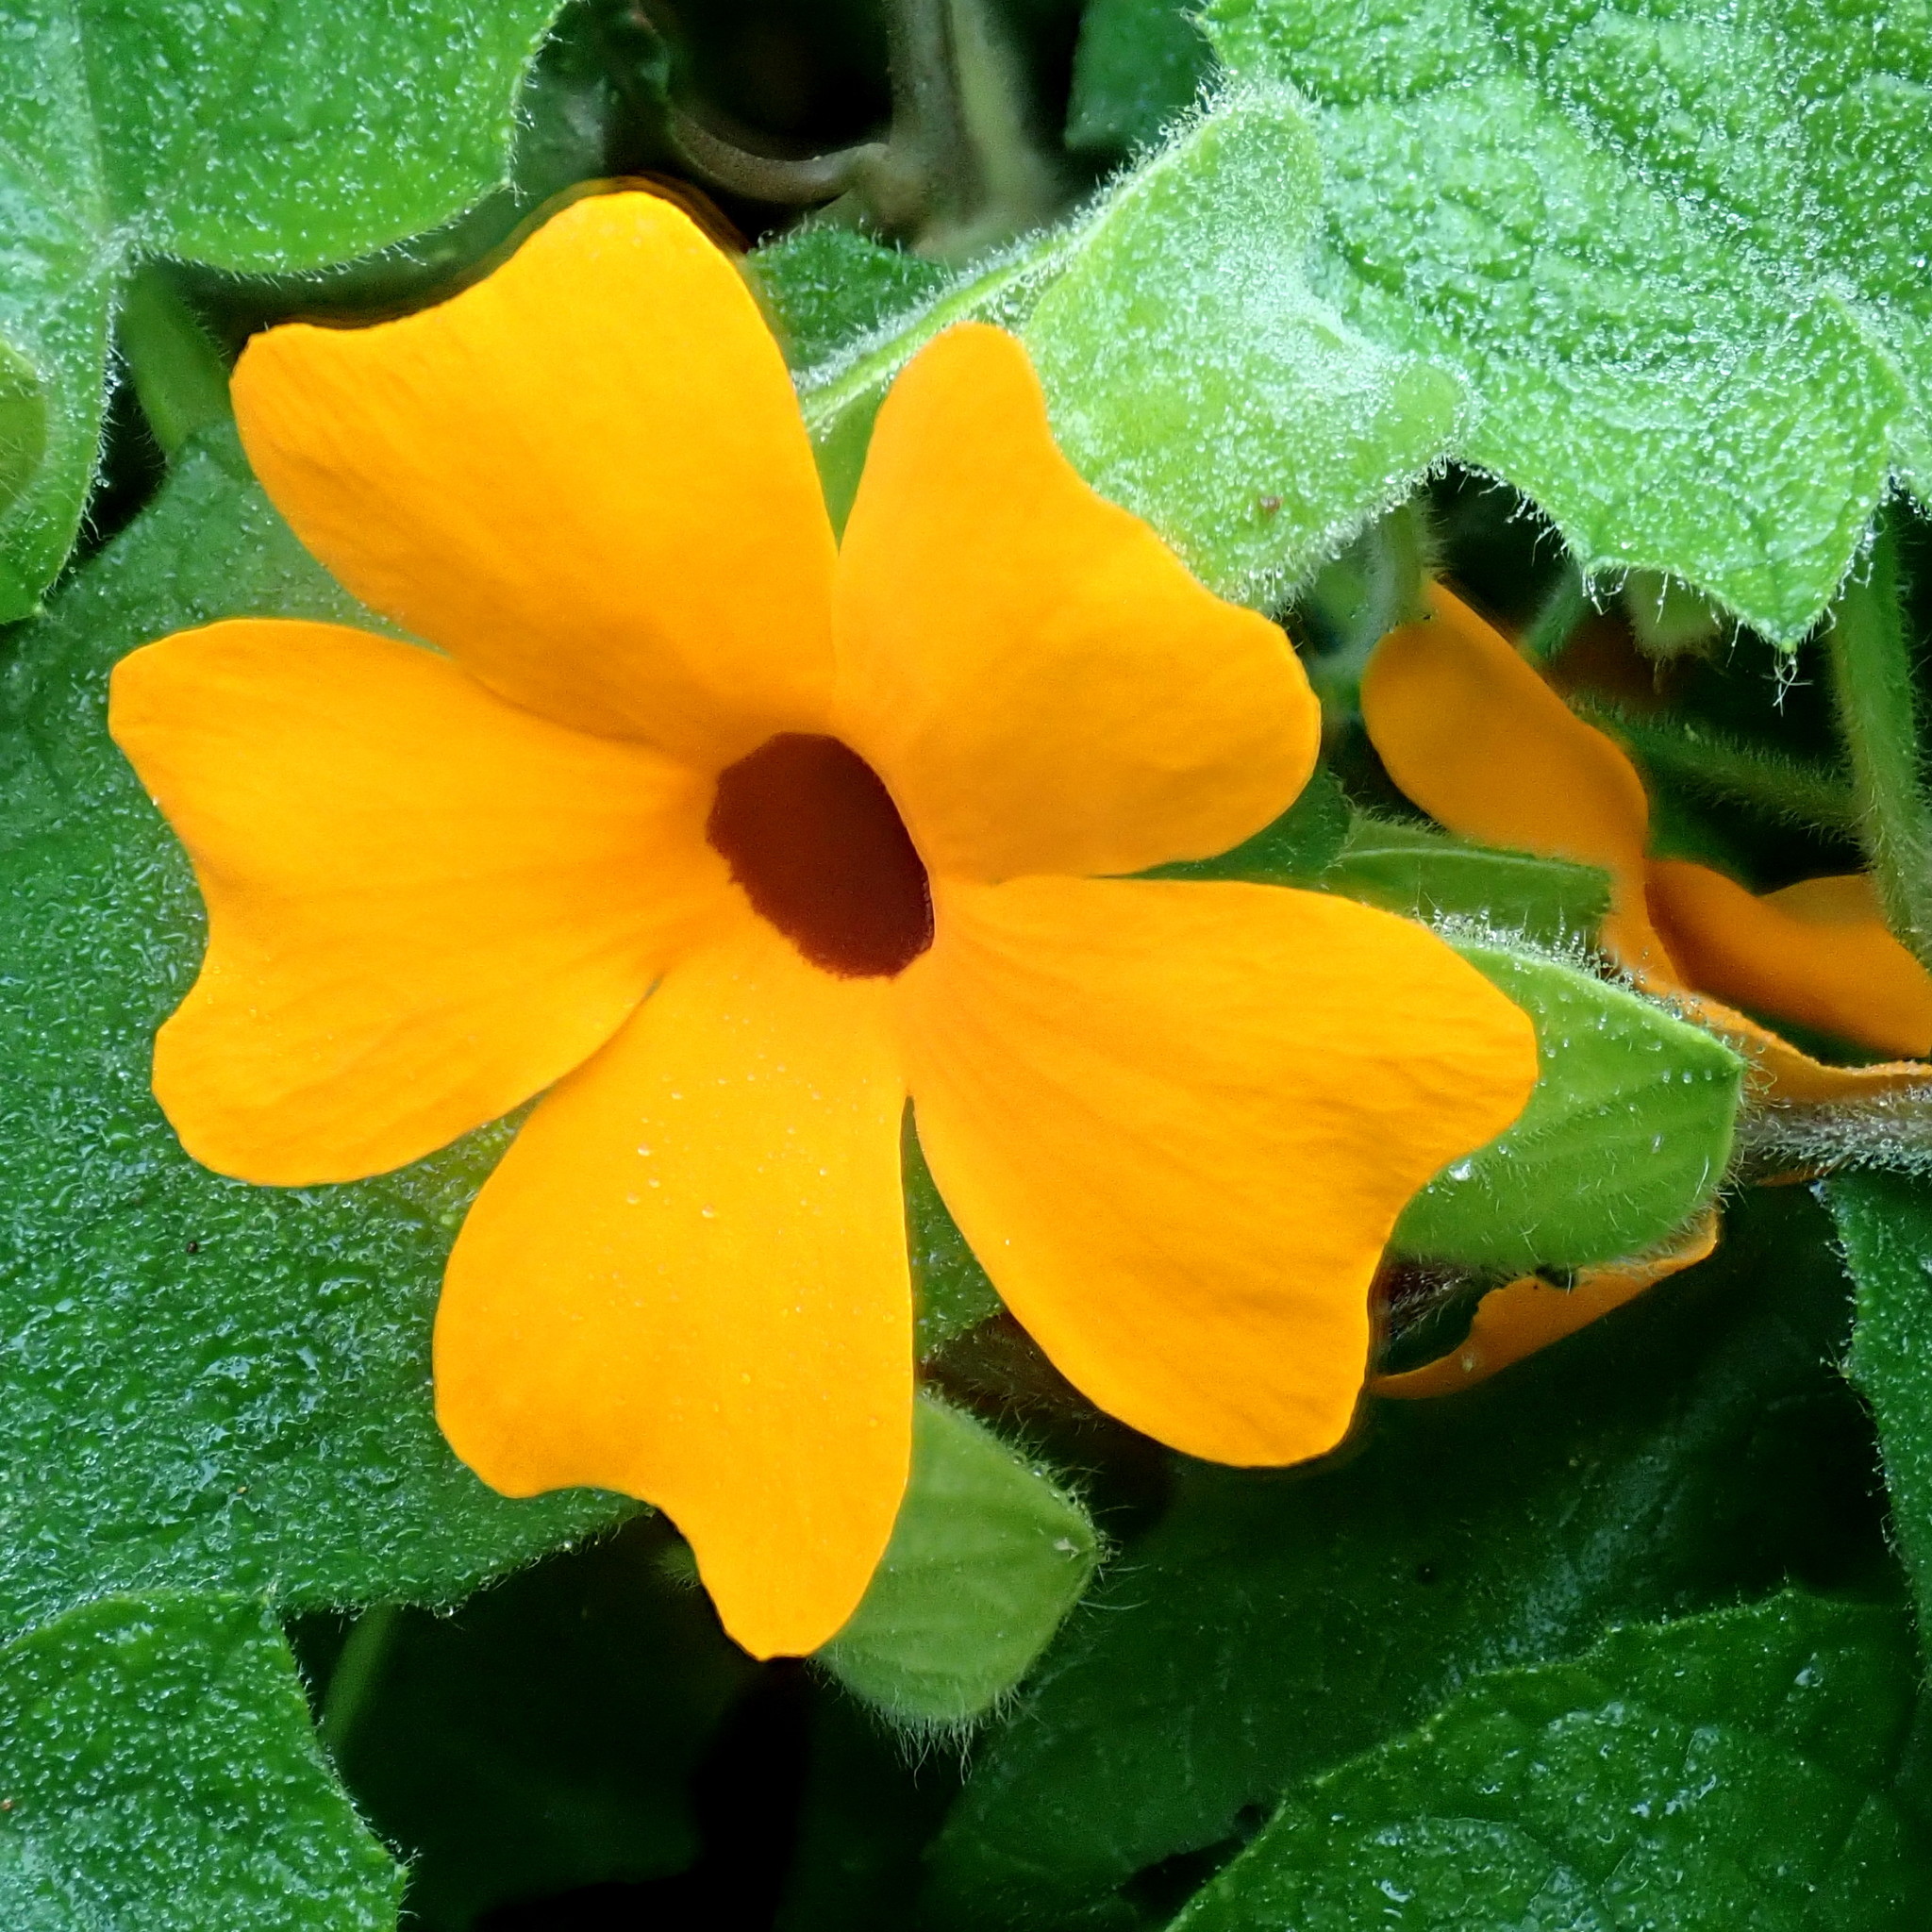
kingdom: Plantae
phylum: Tracheophyta
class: Magnoliopsida
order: Lamiales
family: Acanthaceae
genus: Thunbergia
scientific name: Thunbergia alata
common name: Blackeyed susan vine
